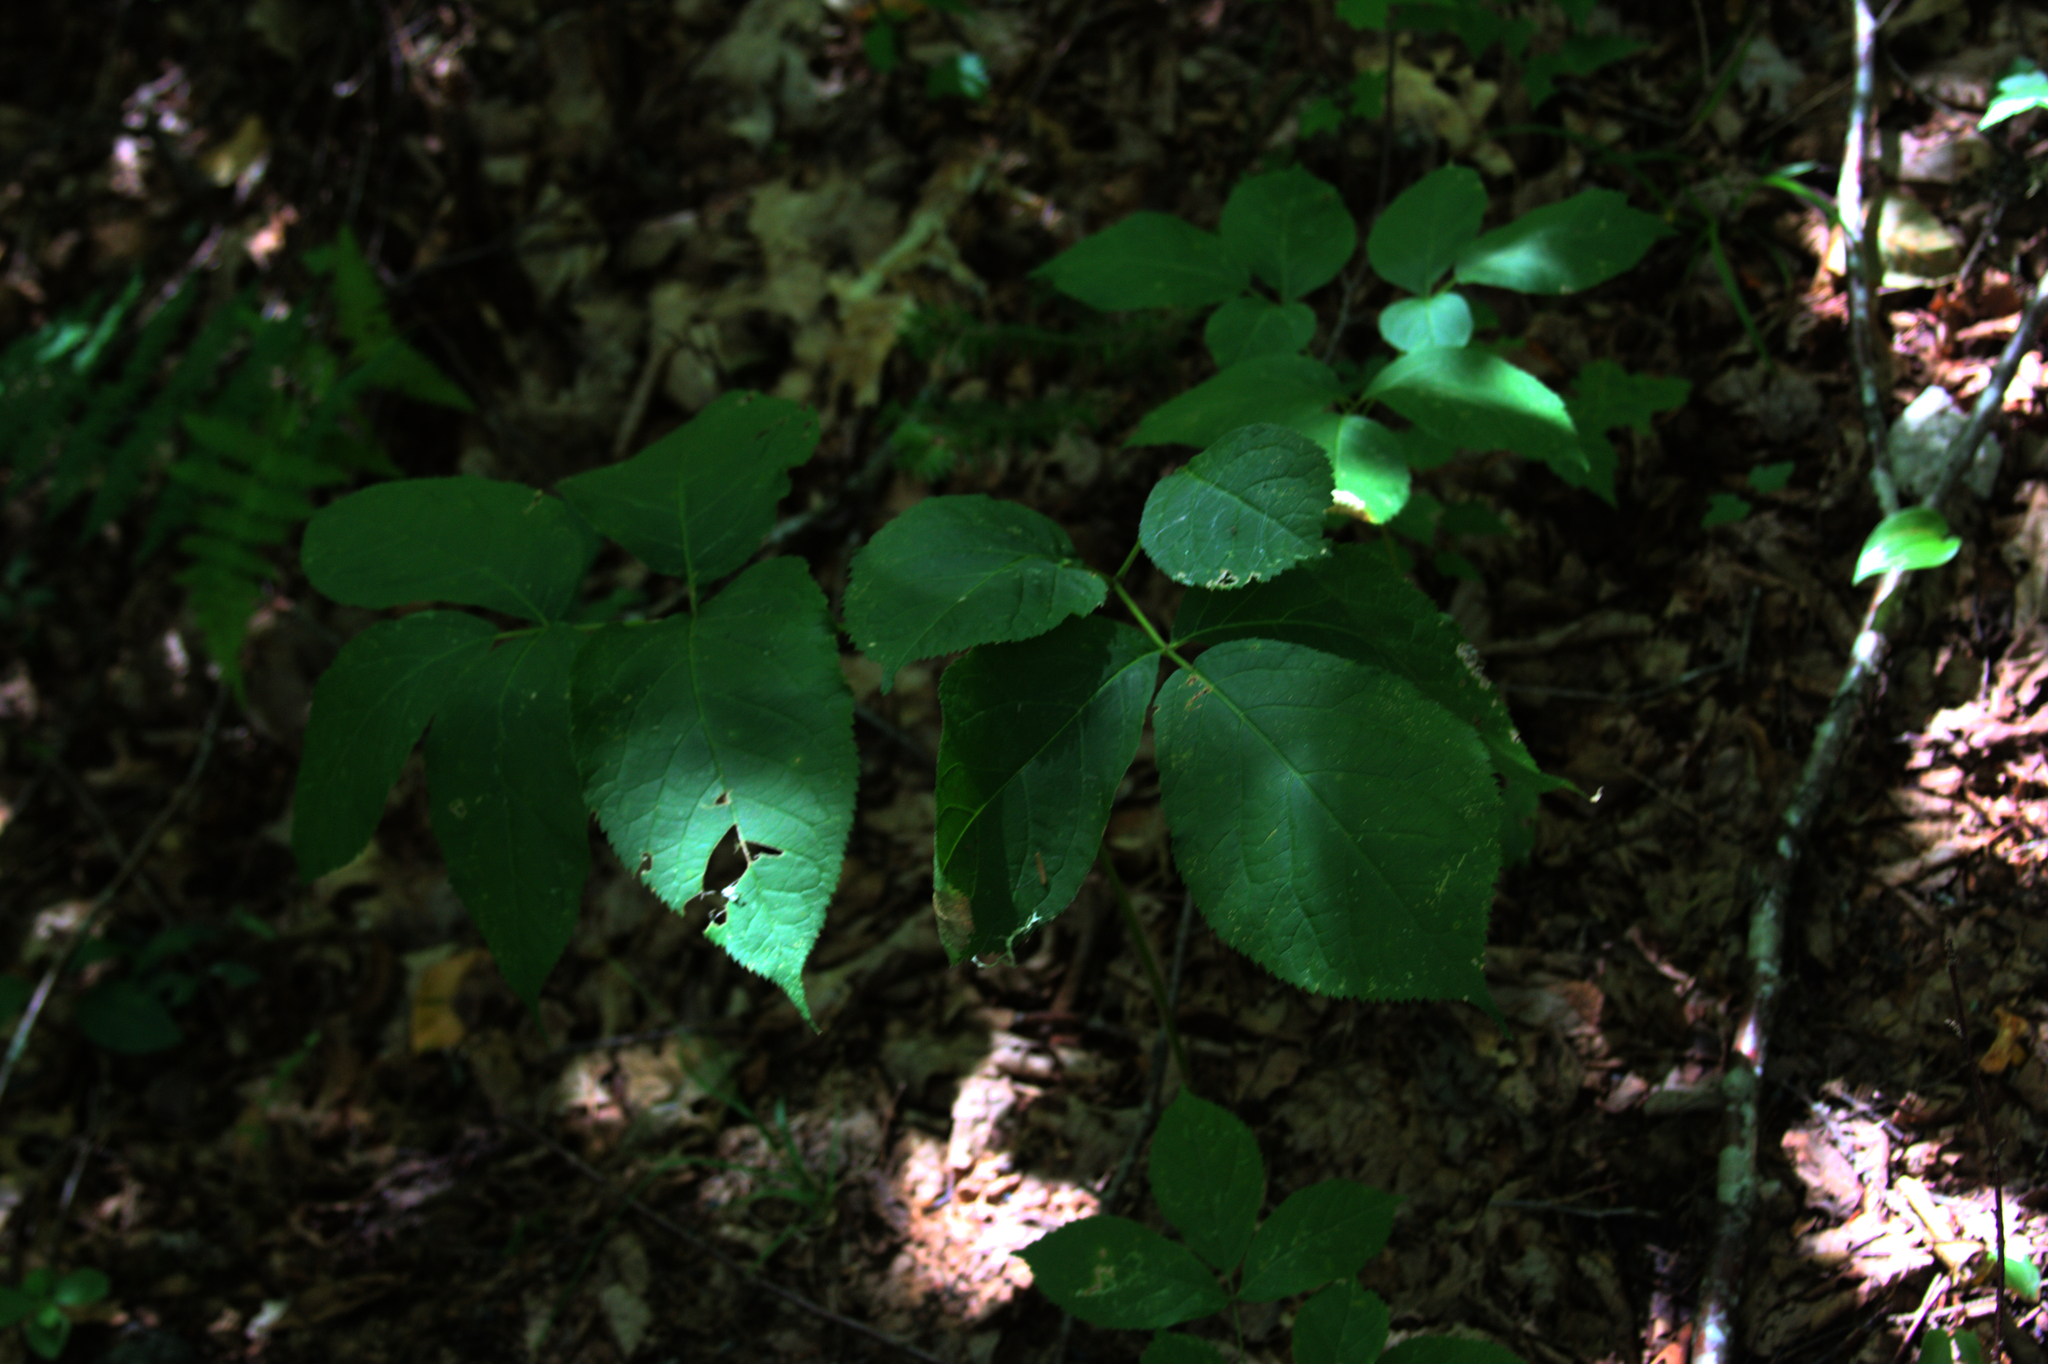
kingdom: Plantae
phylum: Tracheophyta
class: Magnoliopsida
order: Apiales
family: Araliaceae
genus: Aralia
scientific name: Aralia nudicaulis
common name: Wild sarsaparilla
